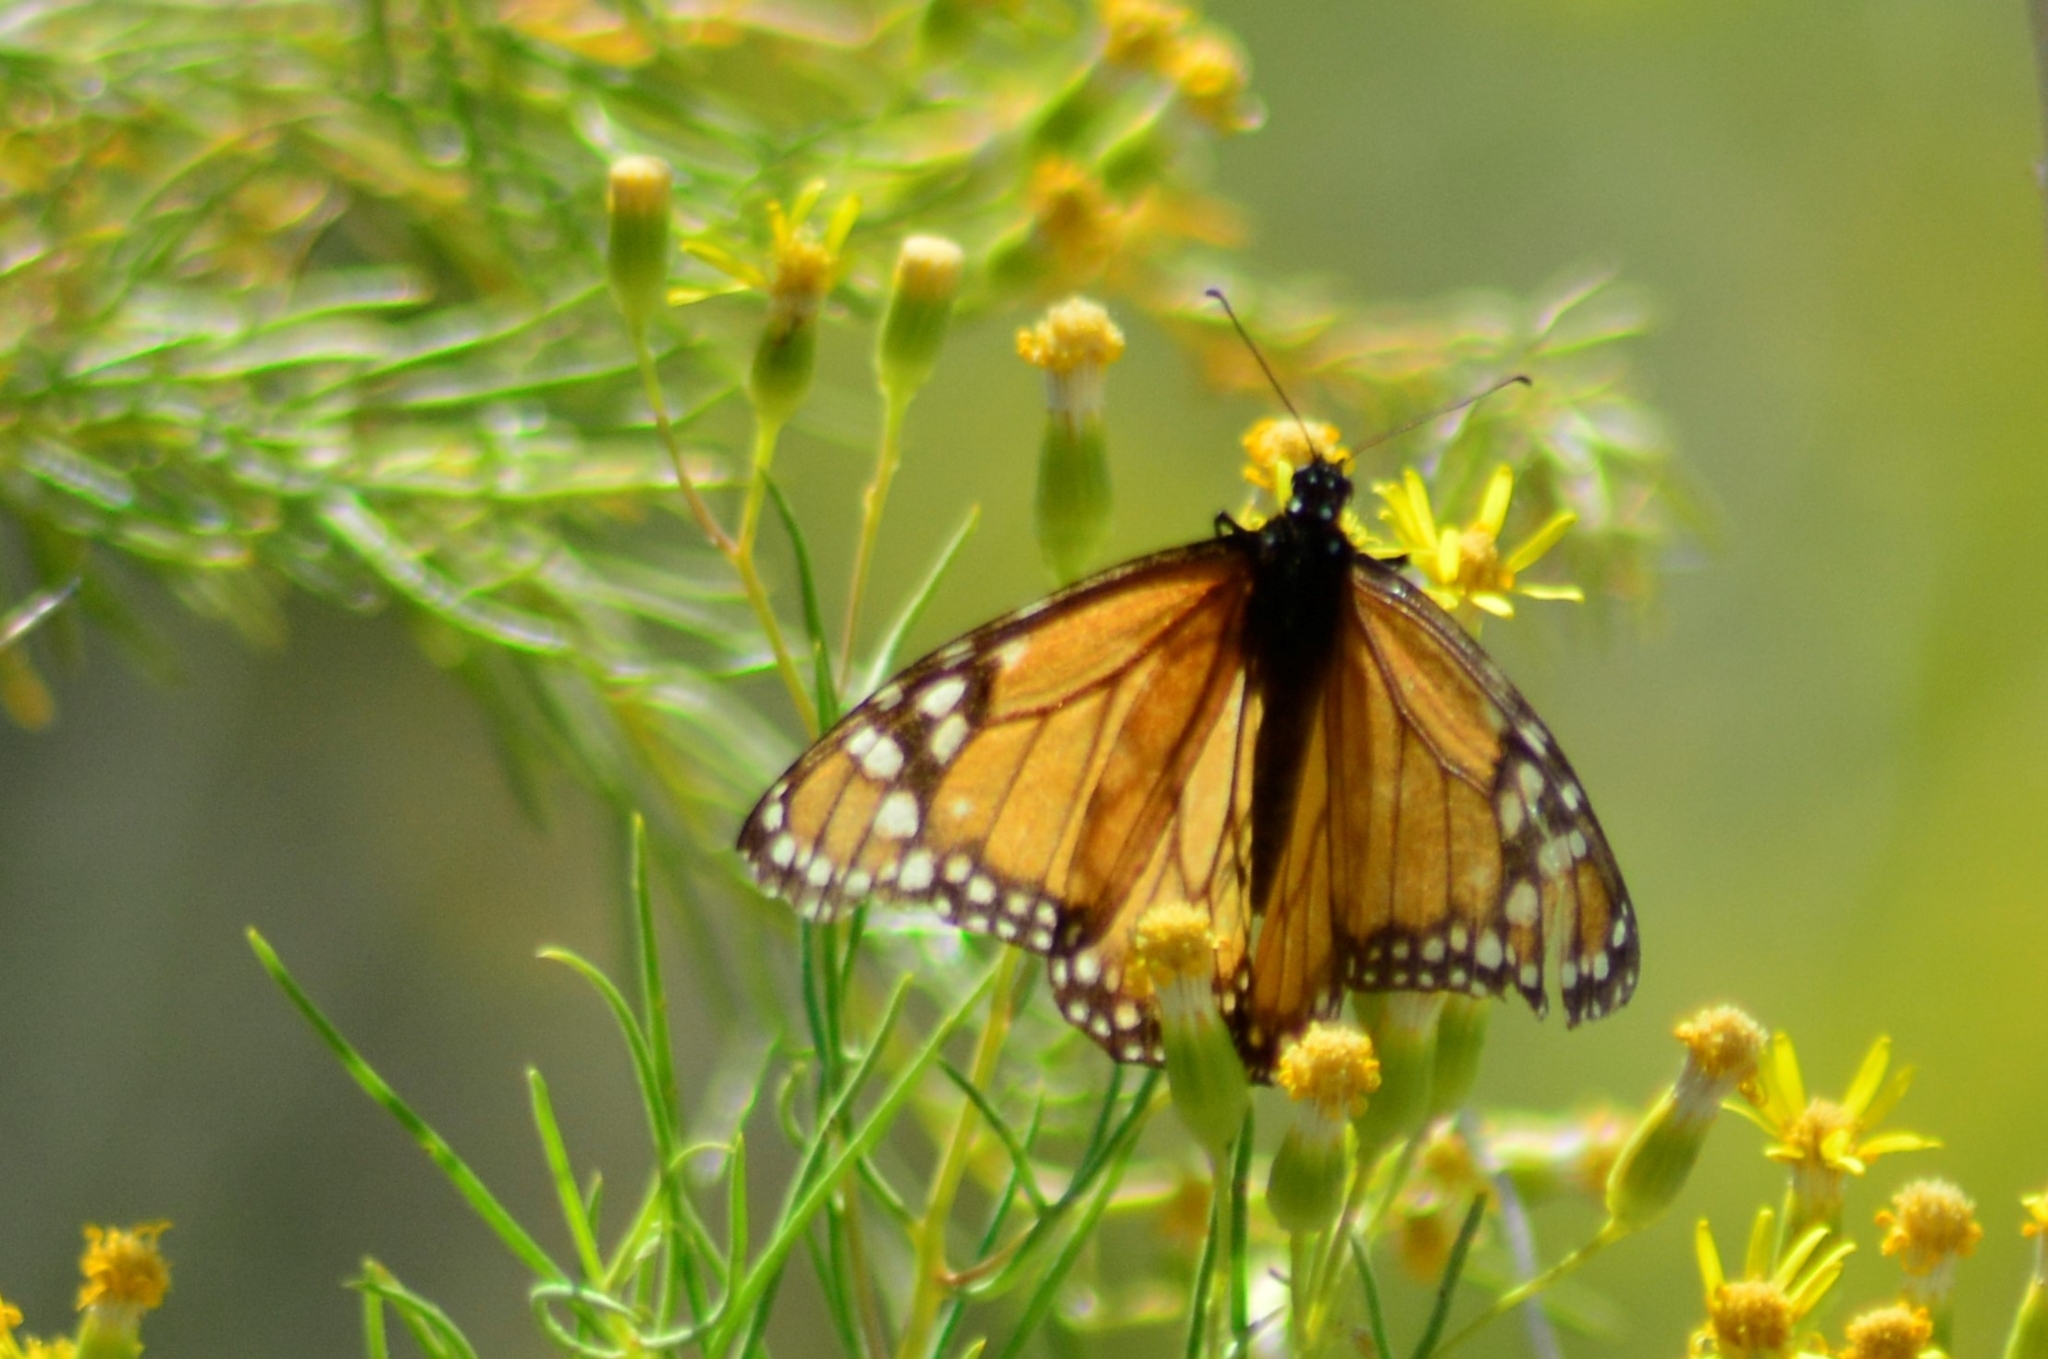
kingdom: Animalia
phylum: Arthropoda
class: Insecta
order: Lepidoptera
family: Nymphalidae
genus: Danaus
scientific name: Danaus erippus
